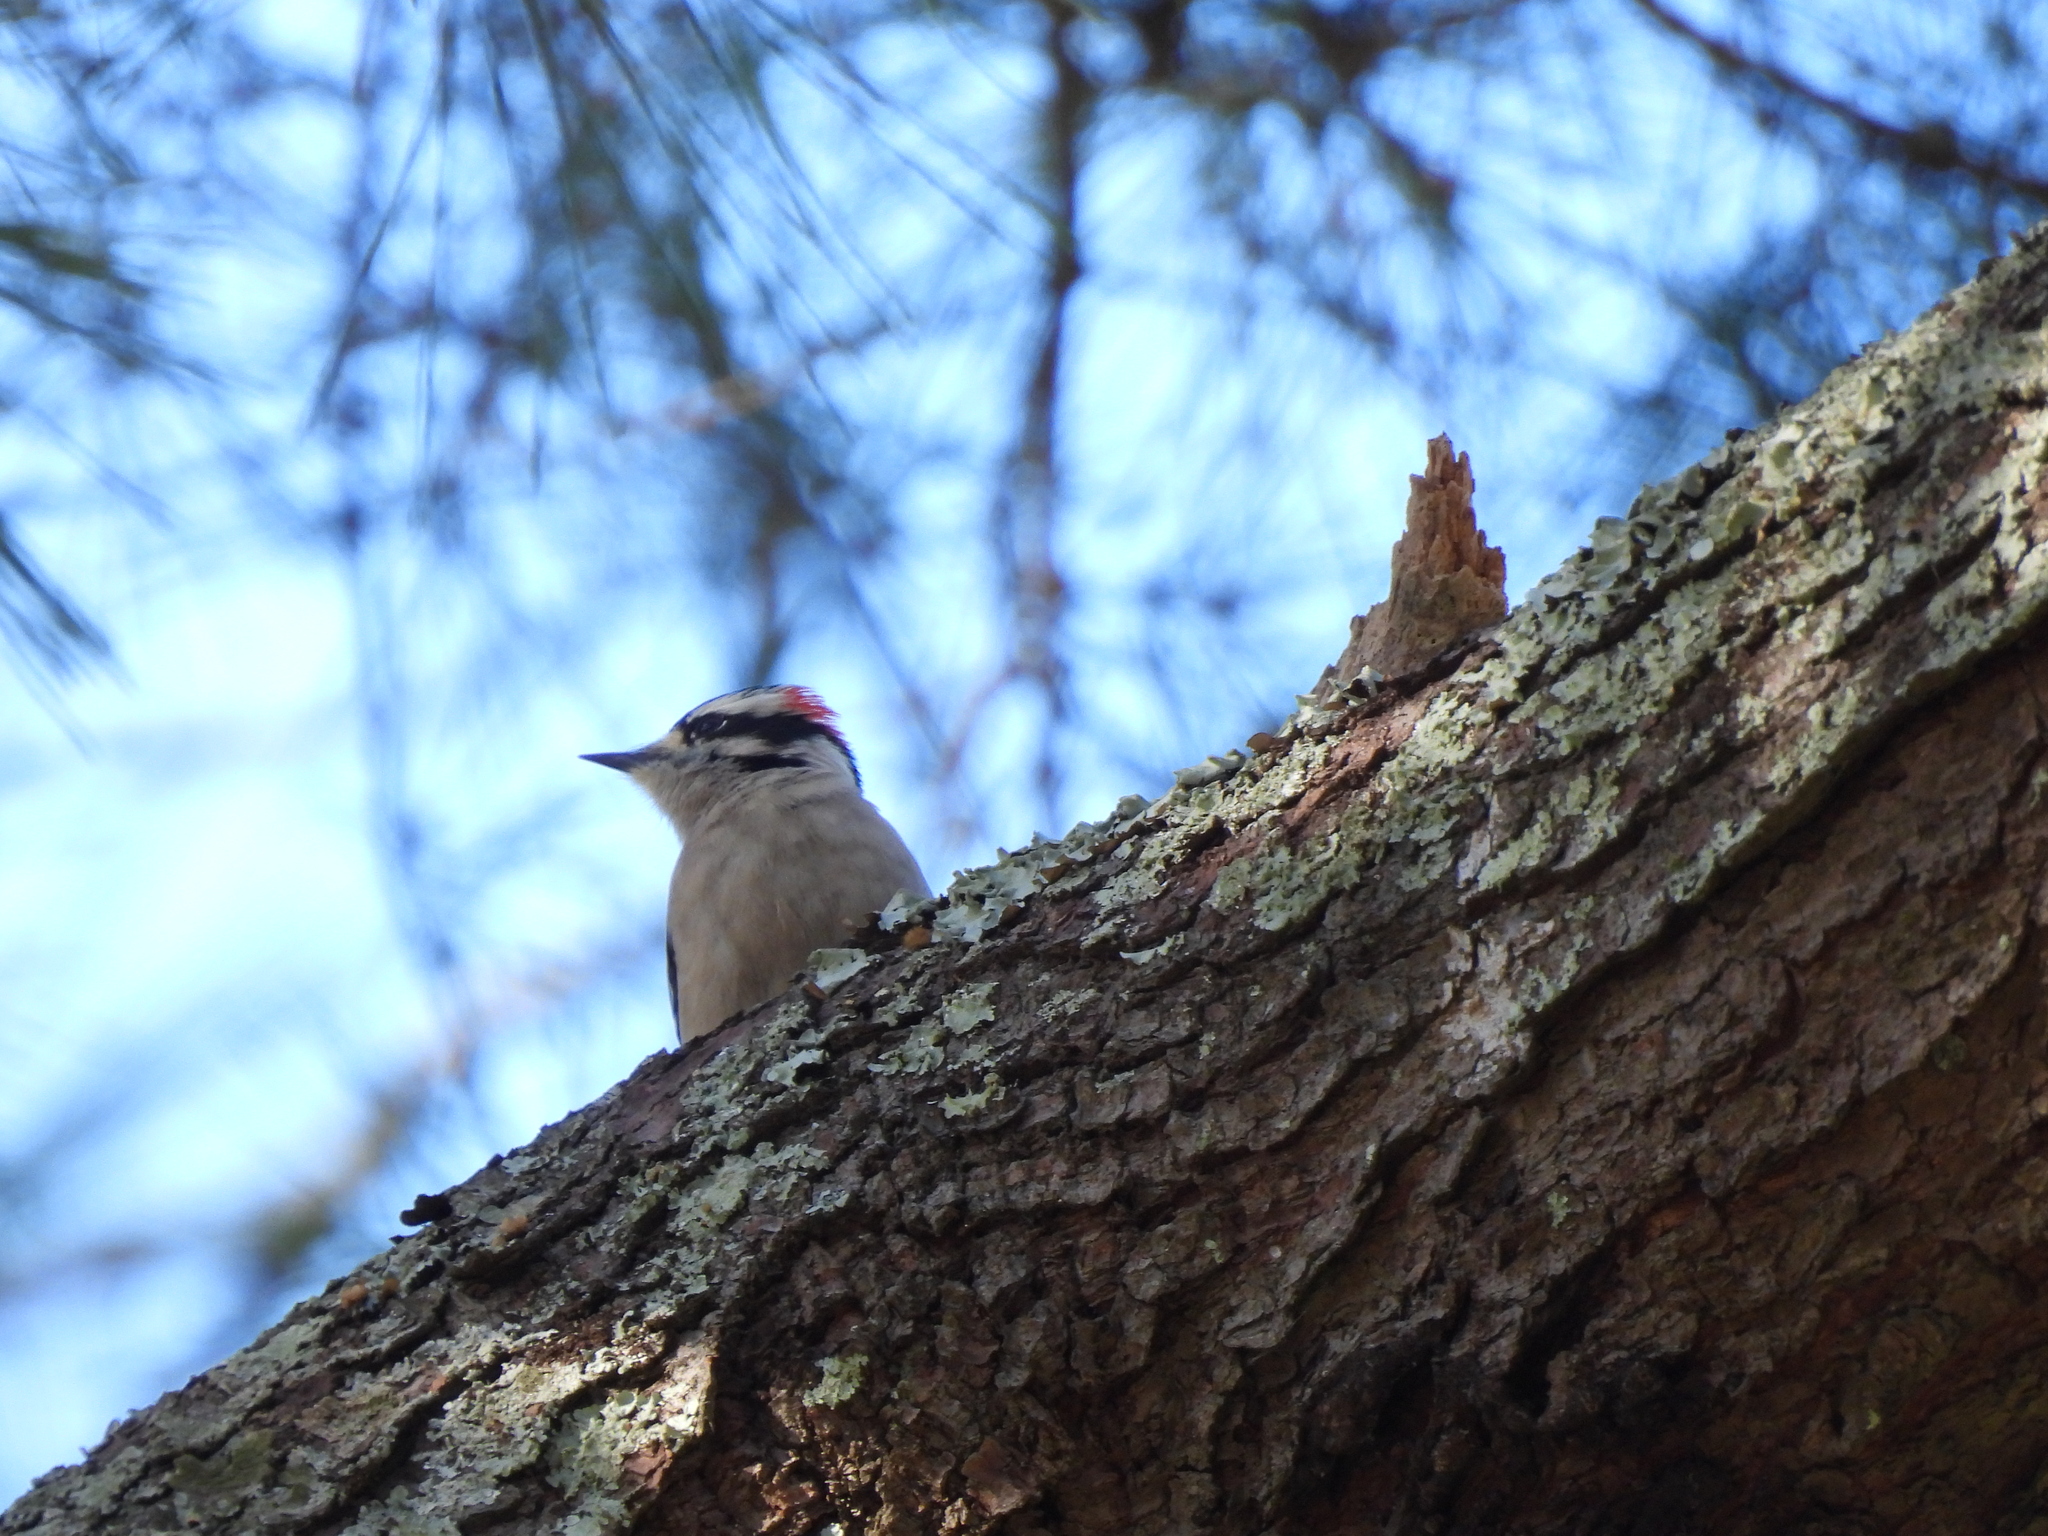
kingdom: Animalia
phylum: Chordata
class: Aves
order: Piciformes
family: Picidae
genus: Dryobates
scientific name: Dryobates pubescens
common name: Downy woodpecker
